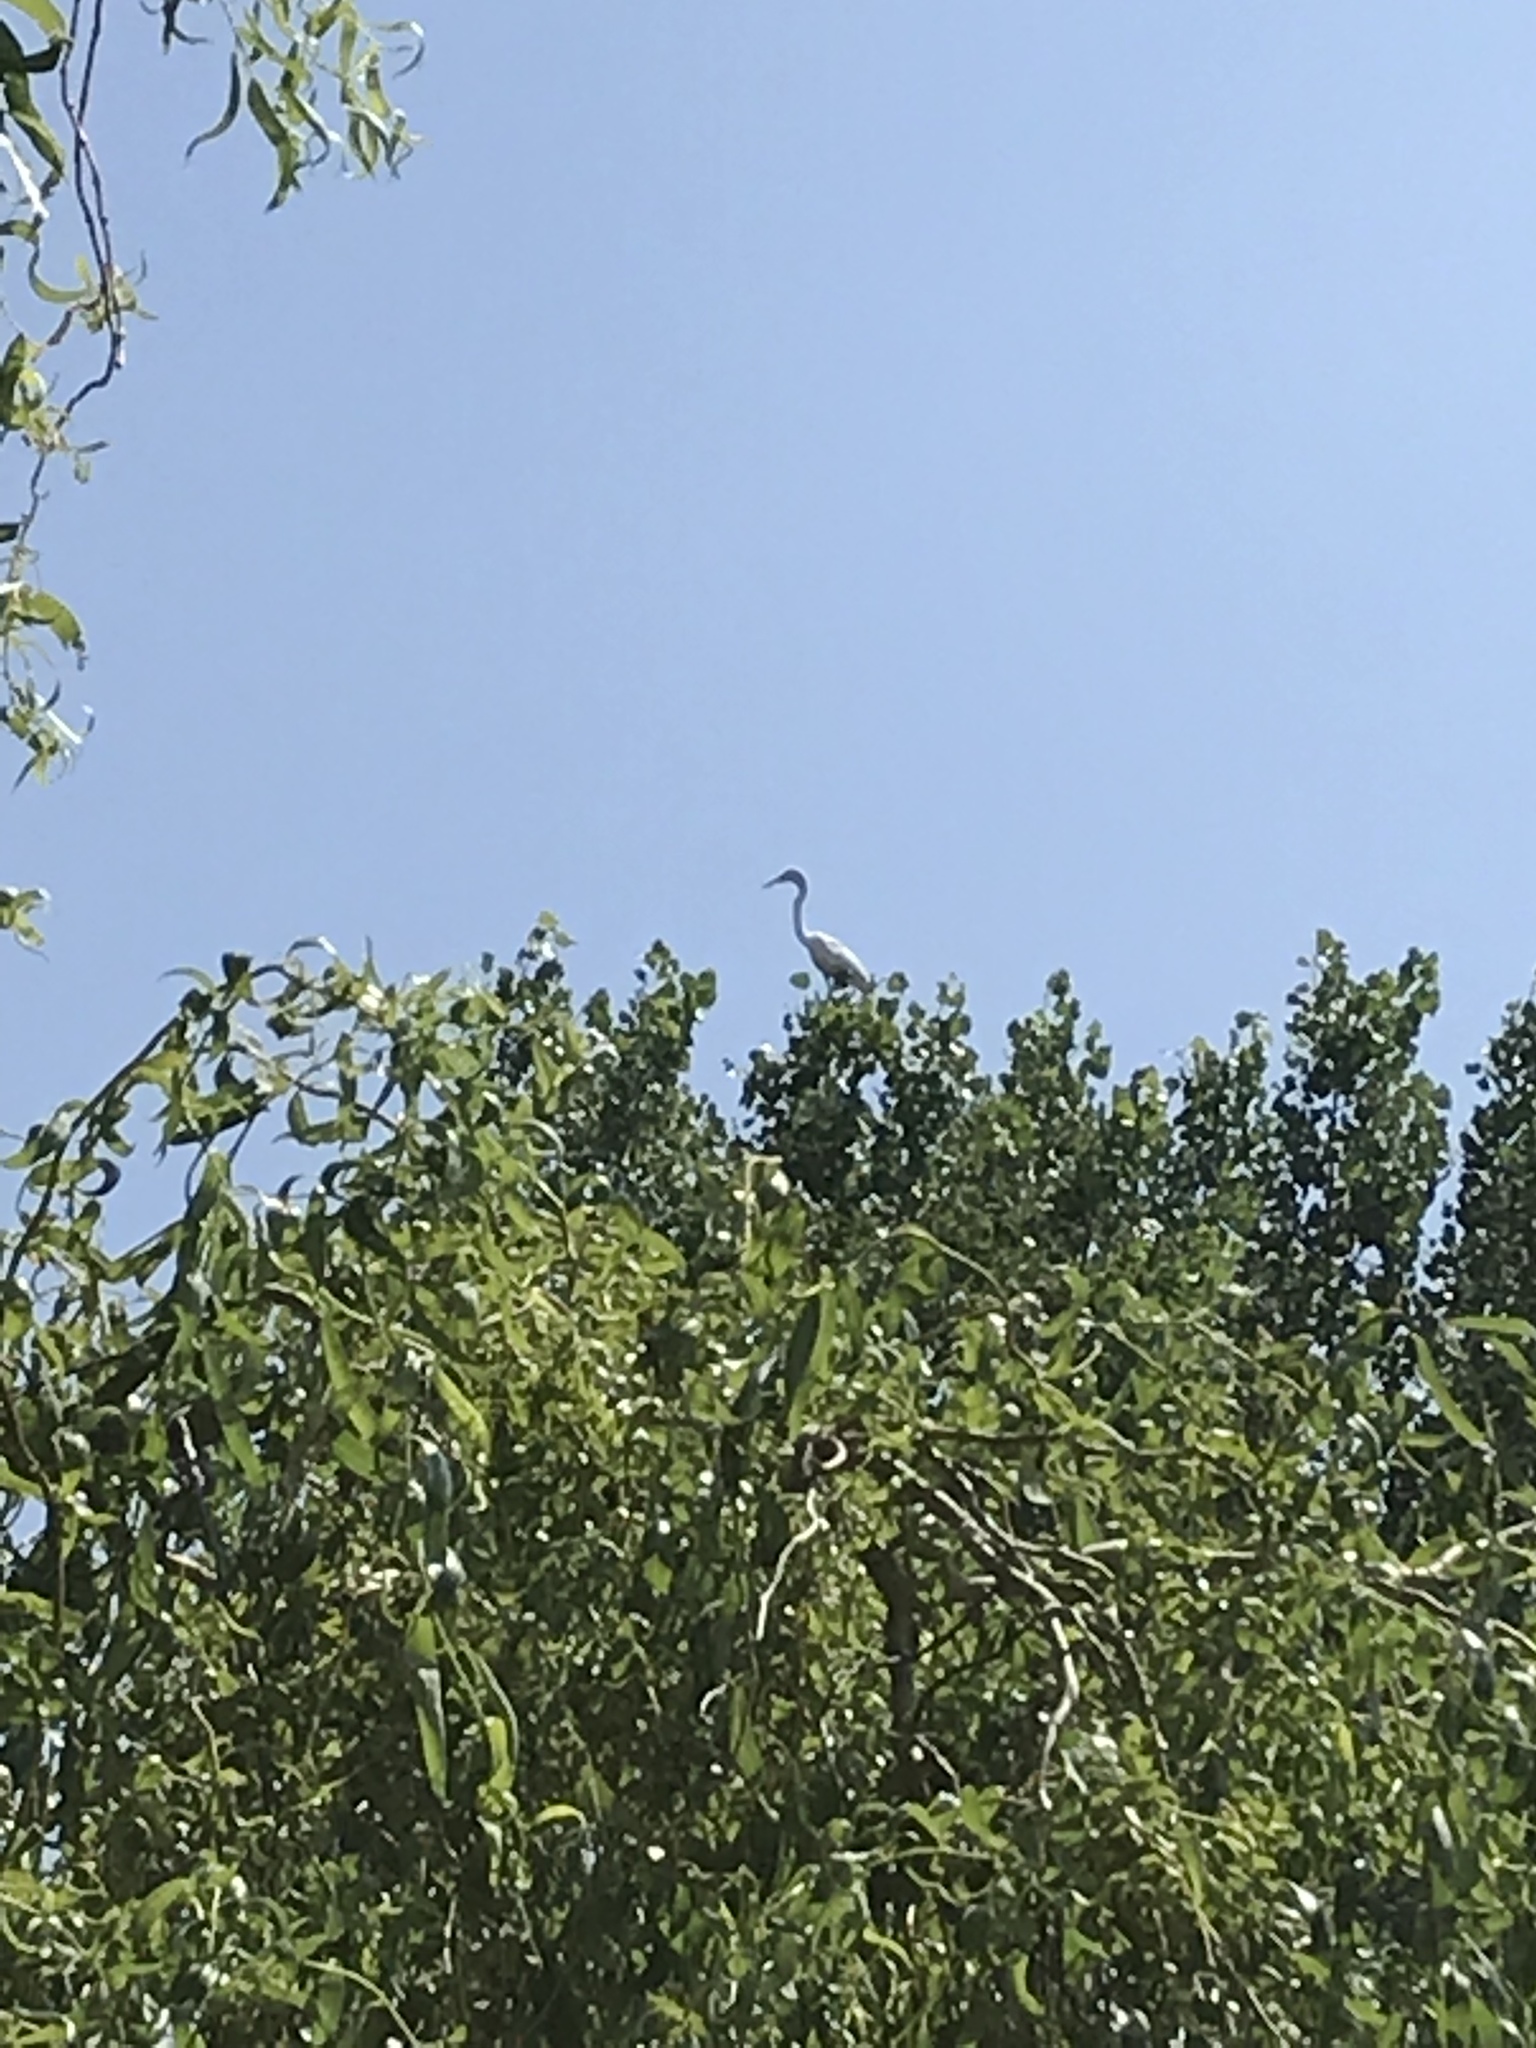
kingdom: Animalia
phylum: Chordata
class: Aves
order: Pelecaniformes
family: Ardeidae
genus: Ardea
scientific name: Ardea alba
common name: Great egret
